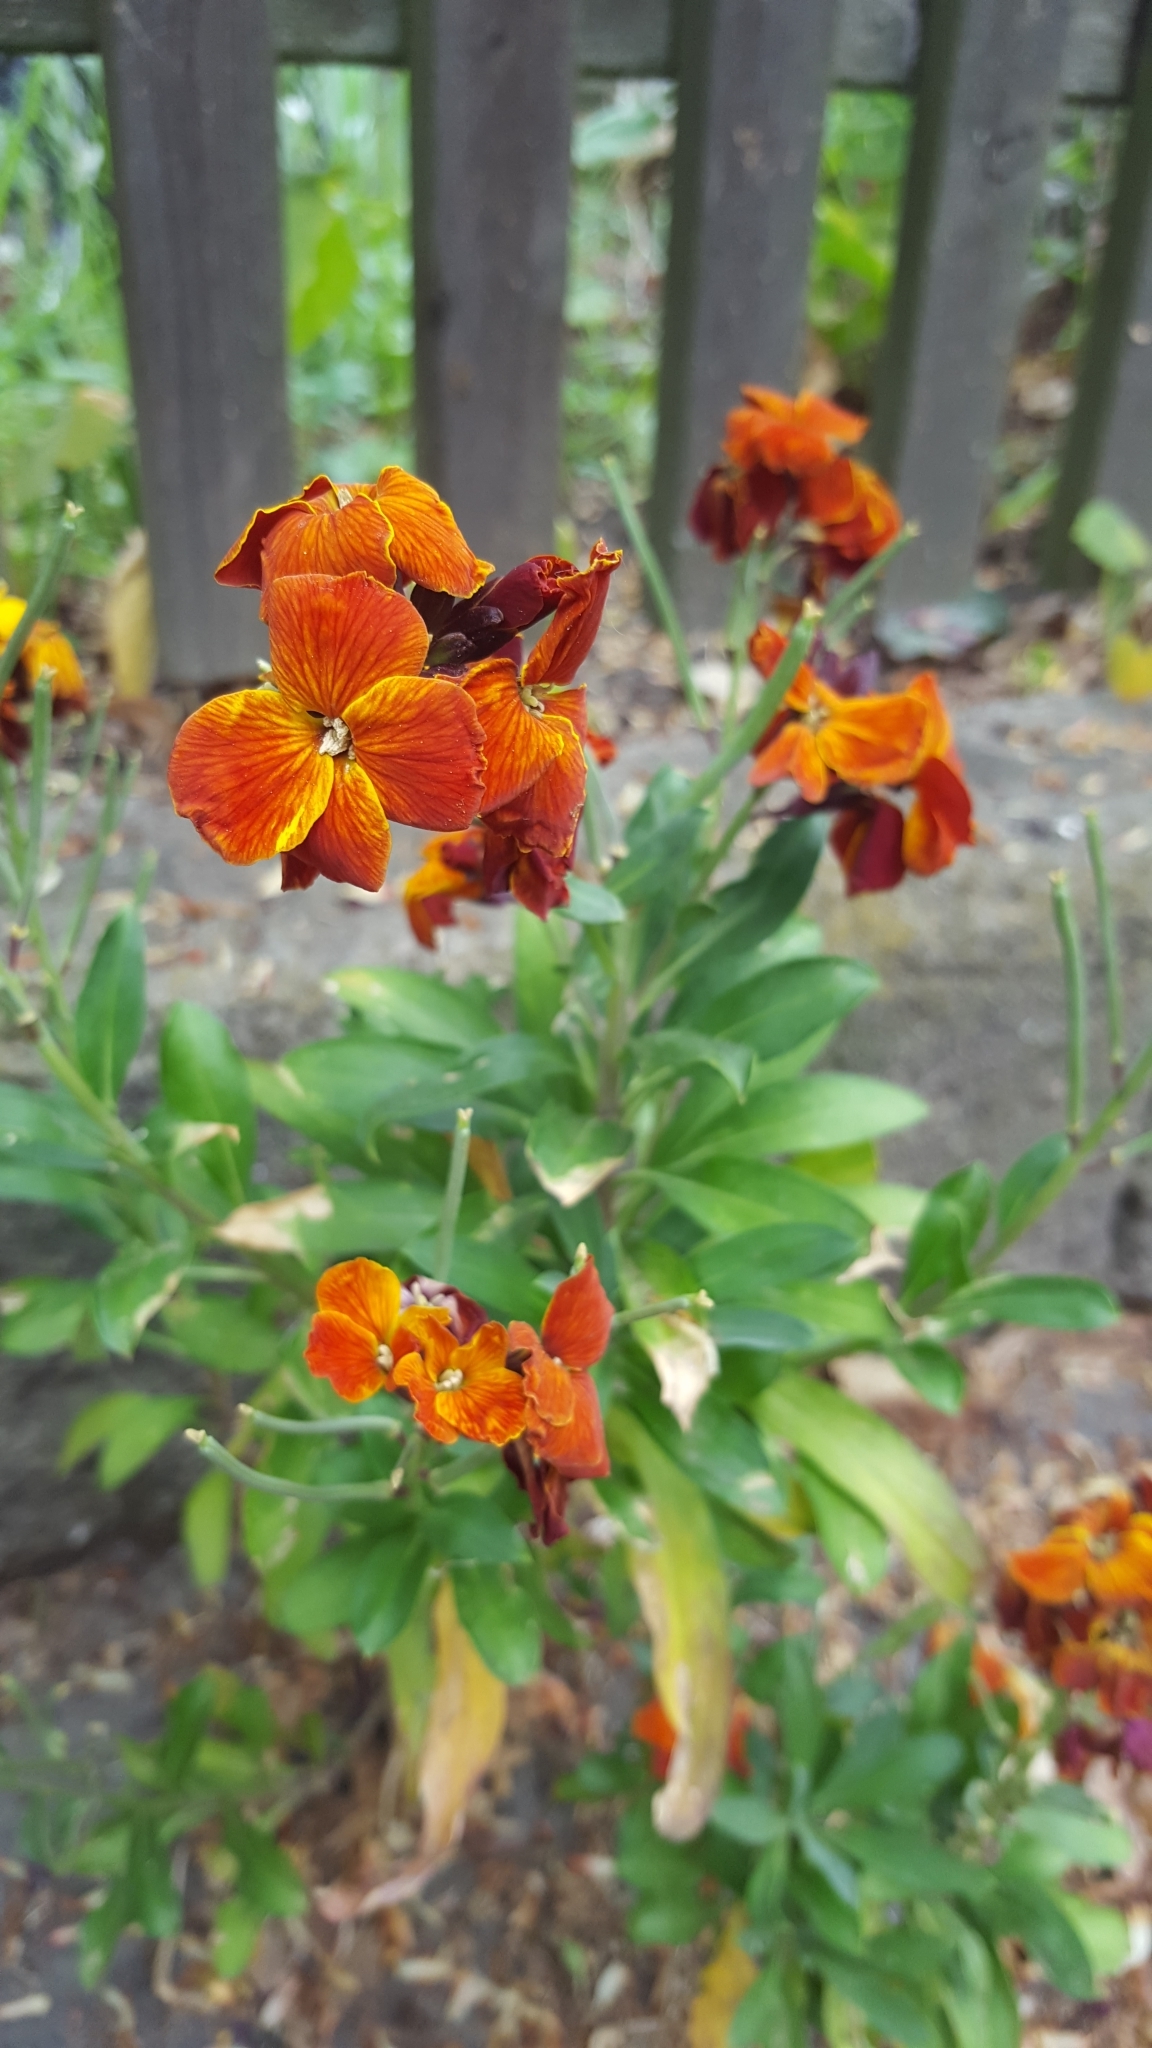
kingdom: Plantae
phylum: Tracheophyta
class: Magnoliopsida
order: Brassicales
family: Brassicaceae
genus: Erysimum
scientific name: Erysimum cheiri
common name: Wallflower
